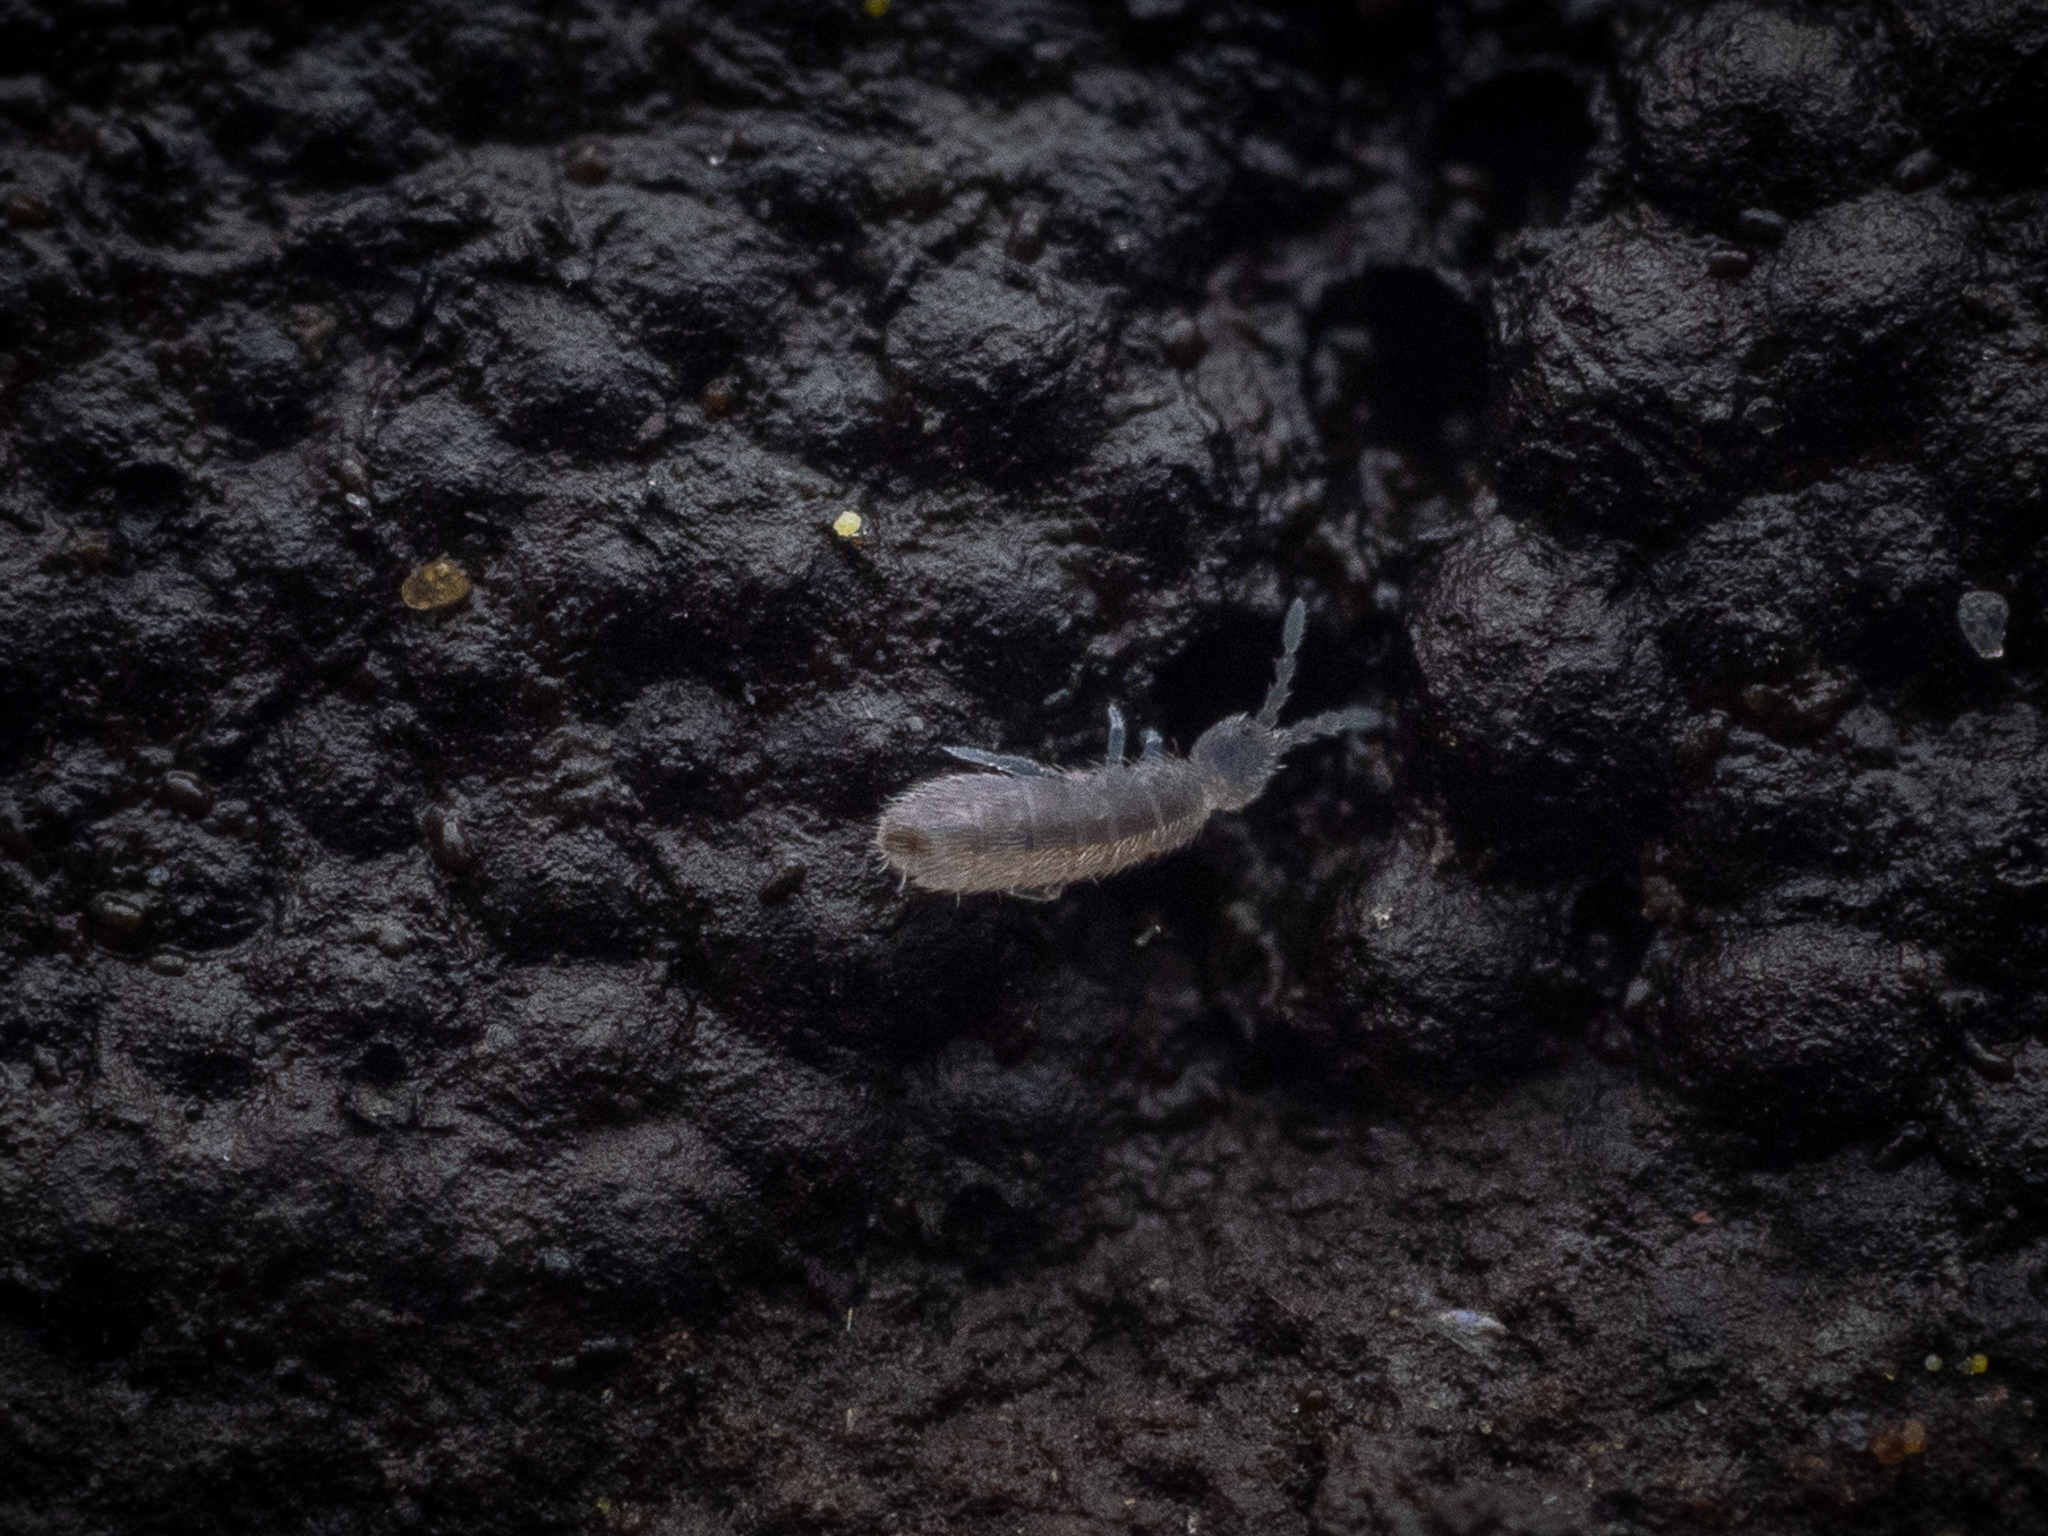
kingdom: Animalia
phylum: Arthropoda
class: Collembola
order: Entomobryomorpha
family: Isotomidae
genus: Vertagopus
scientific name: Vertagopus pseudocinereus
